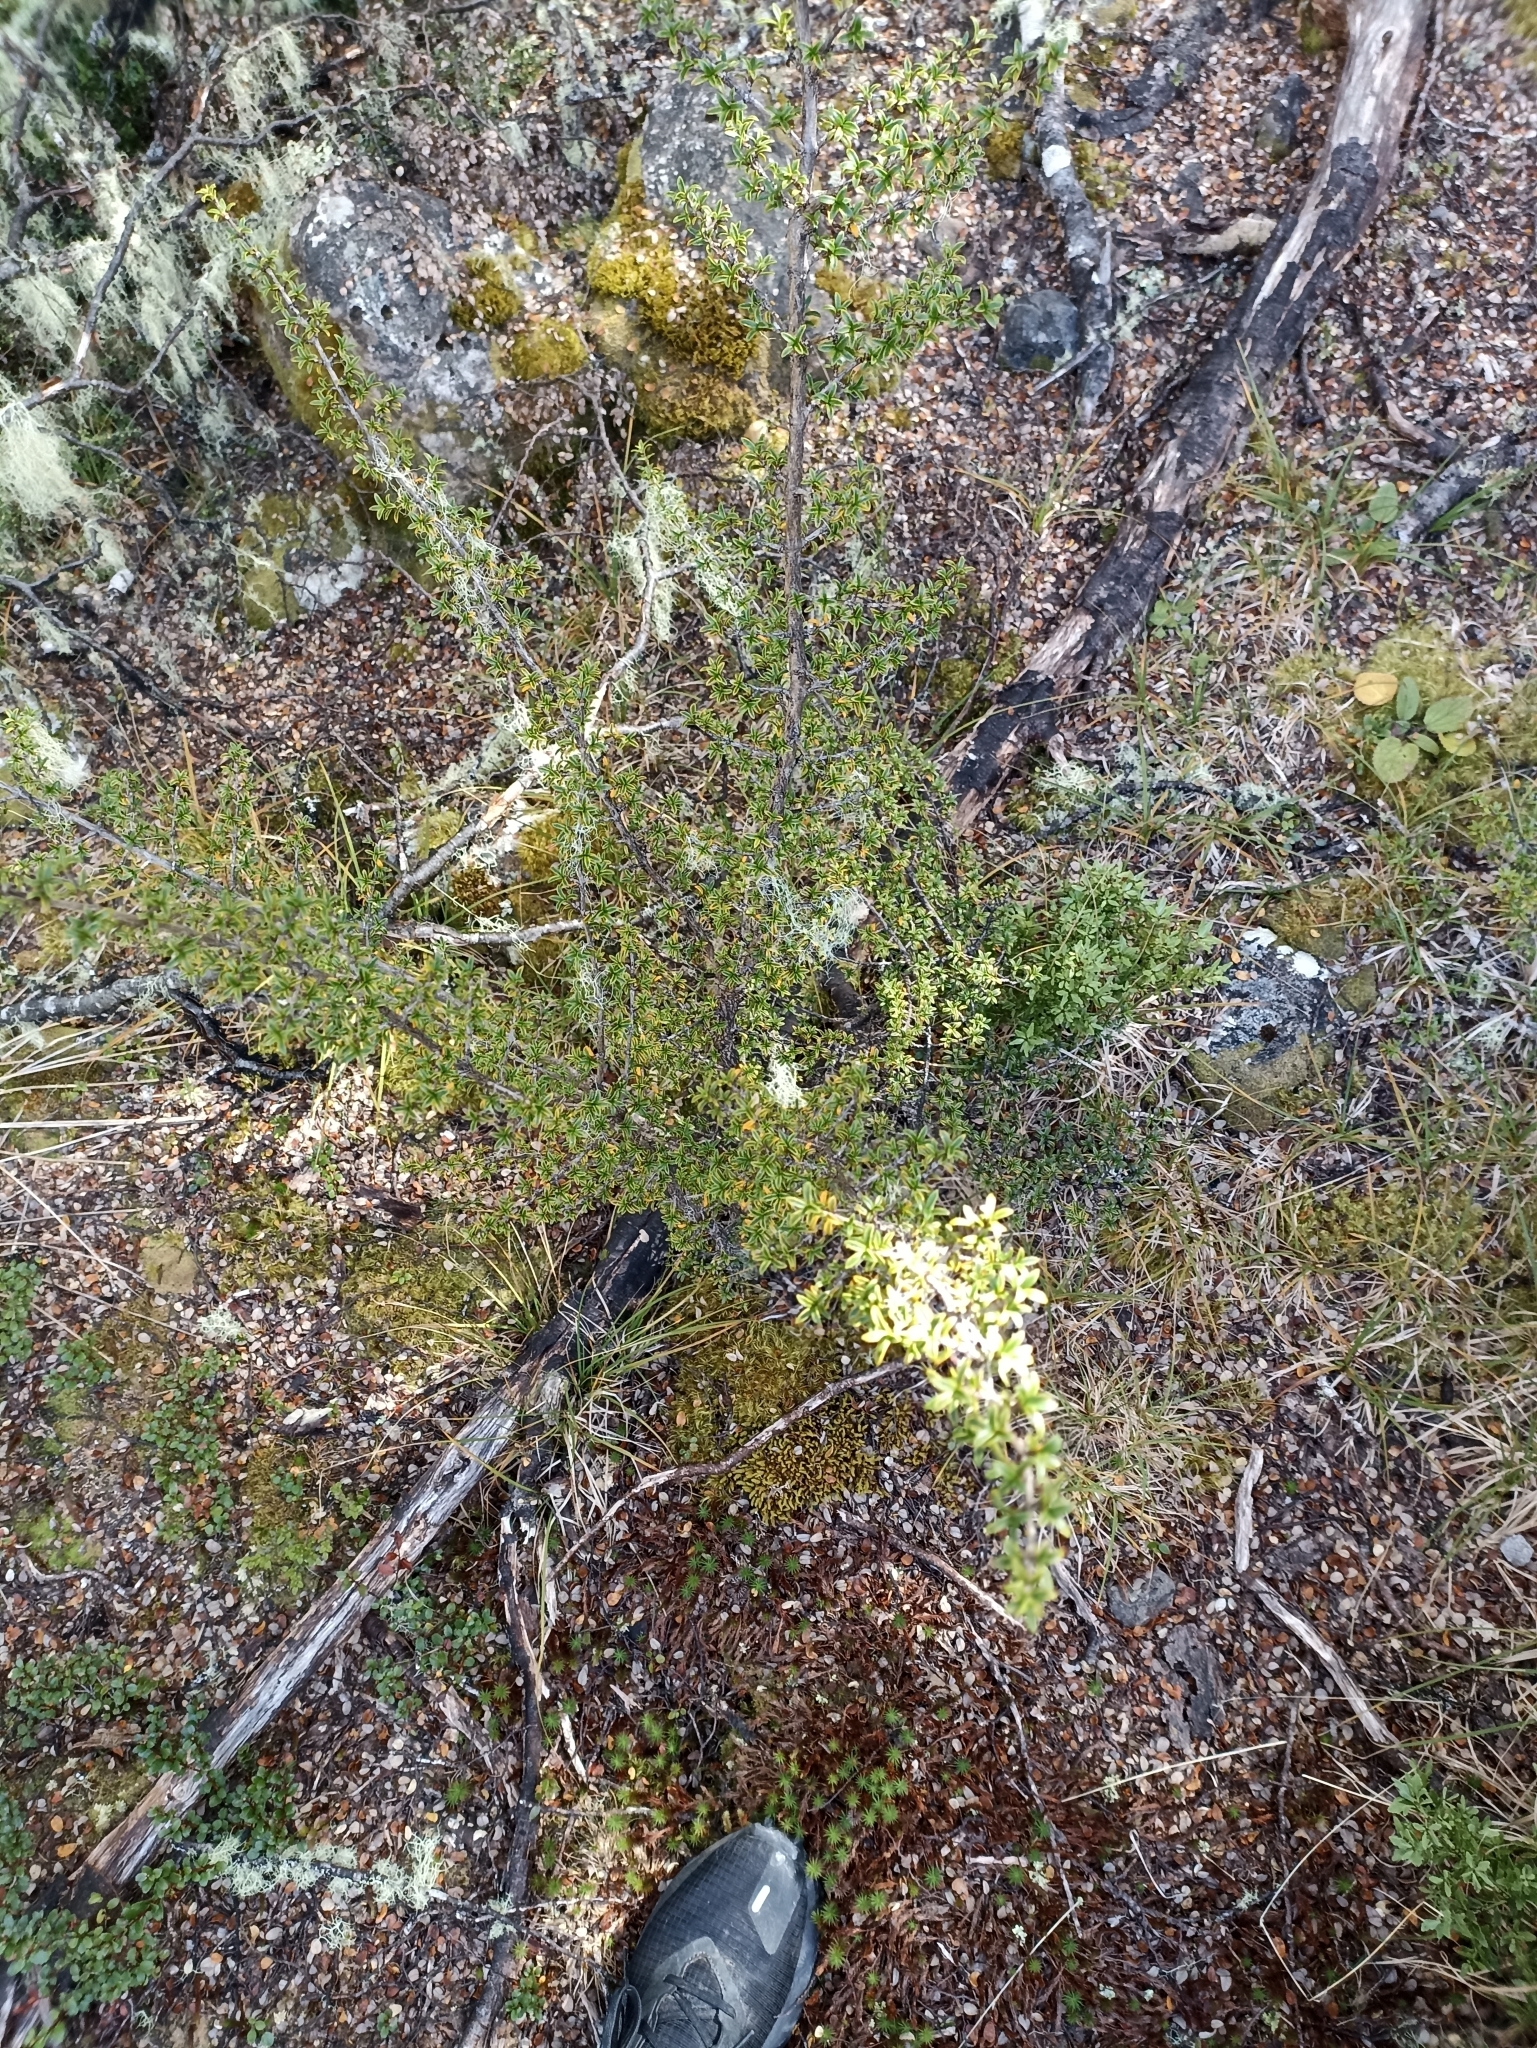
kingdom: Plantae
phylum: Tracheophyta
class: Magnoliopsida
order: Gentianales
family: Rubiaceae
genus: Coprosma
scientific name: Coprosma pseudocuneata
